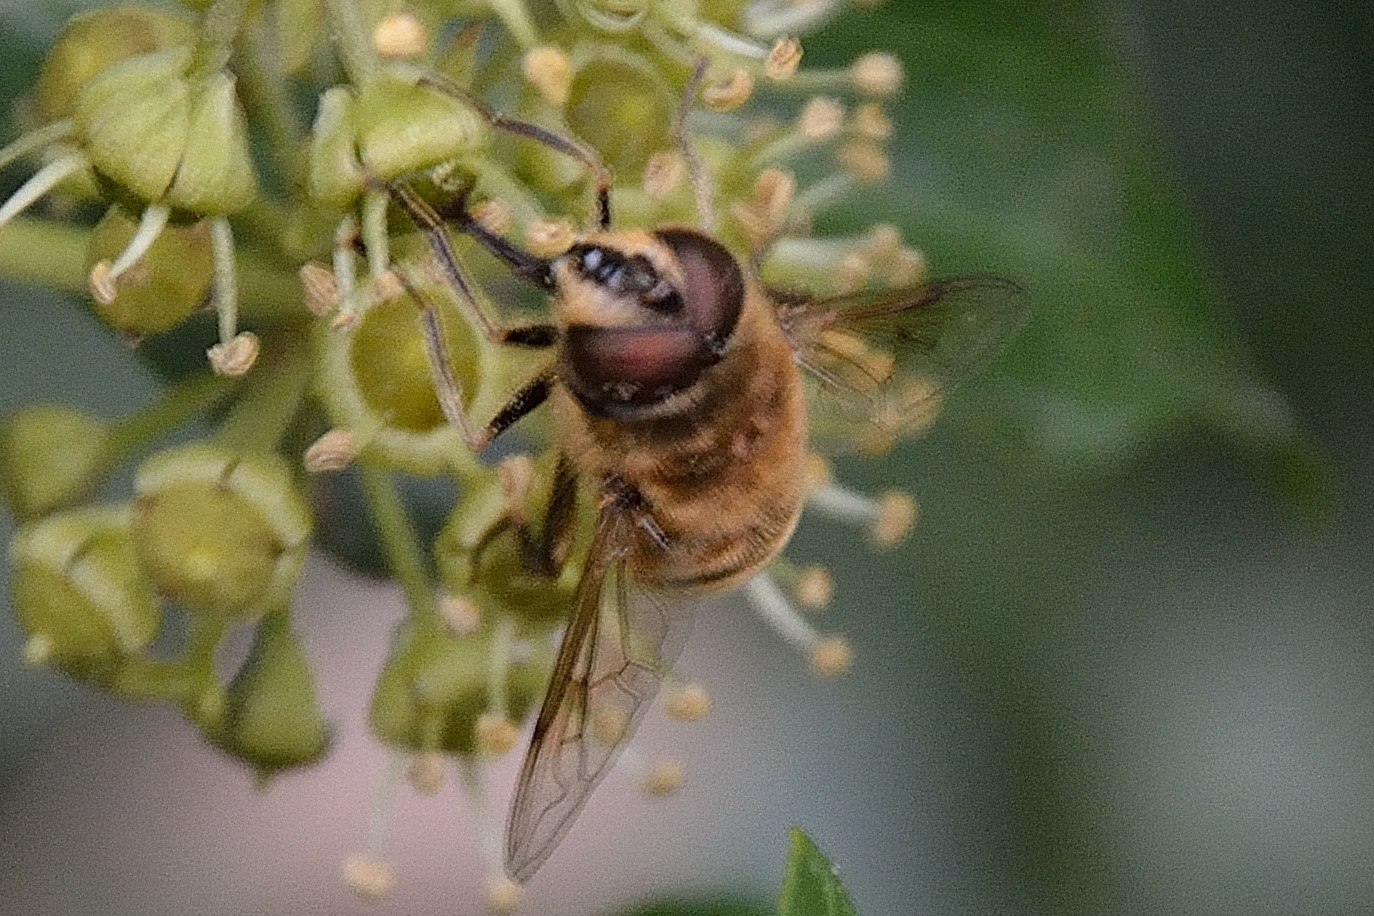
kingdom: Animalia
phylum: Arthropoda
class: Insecta
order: Diptera
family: Syrphidae
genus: Eristalis
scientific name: Eristalis tenax
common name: Drone fly
